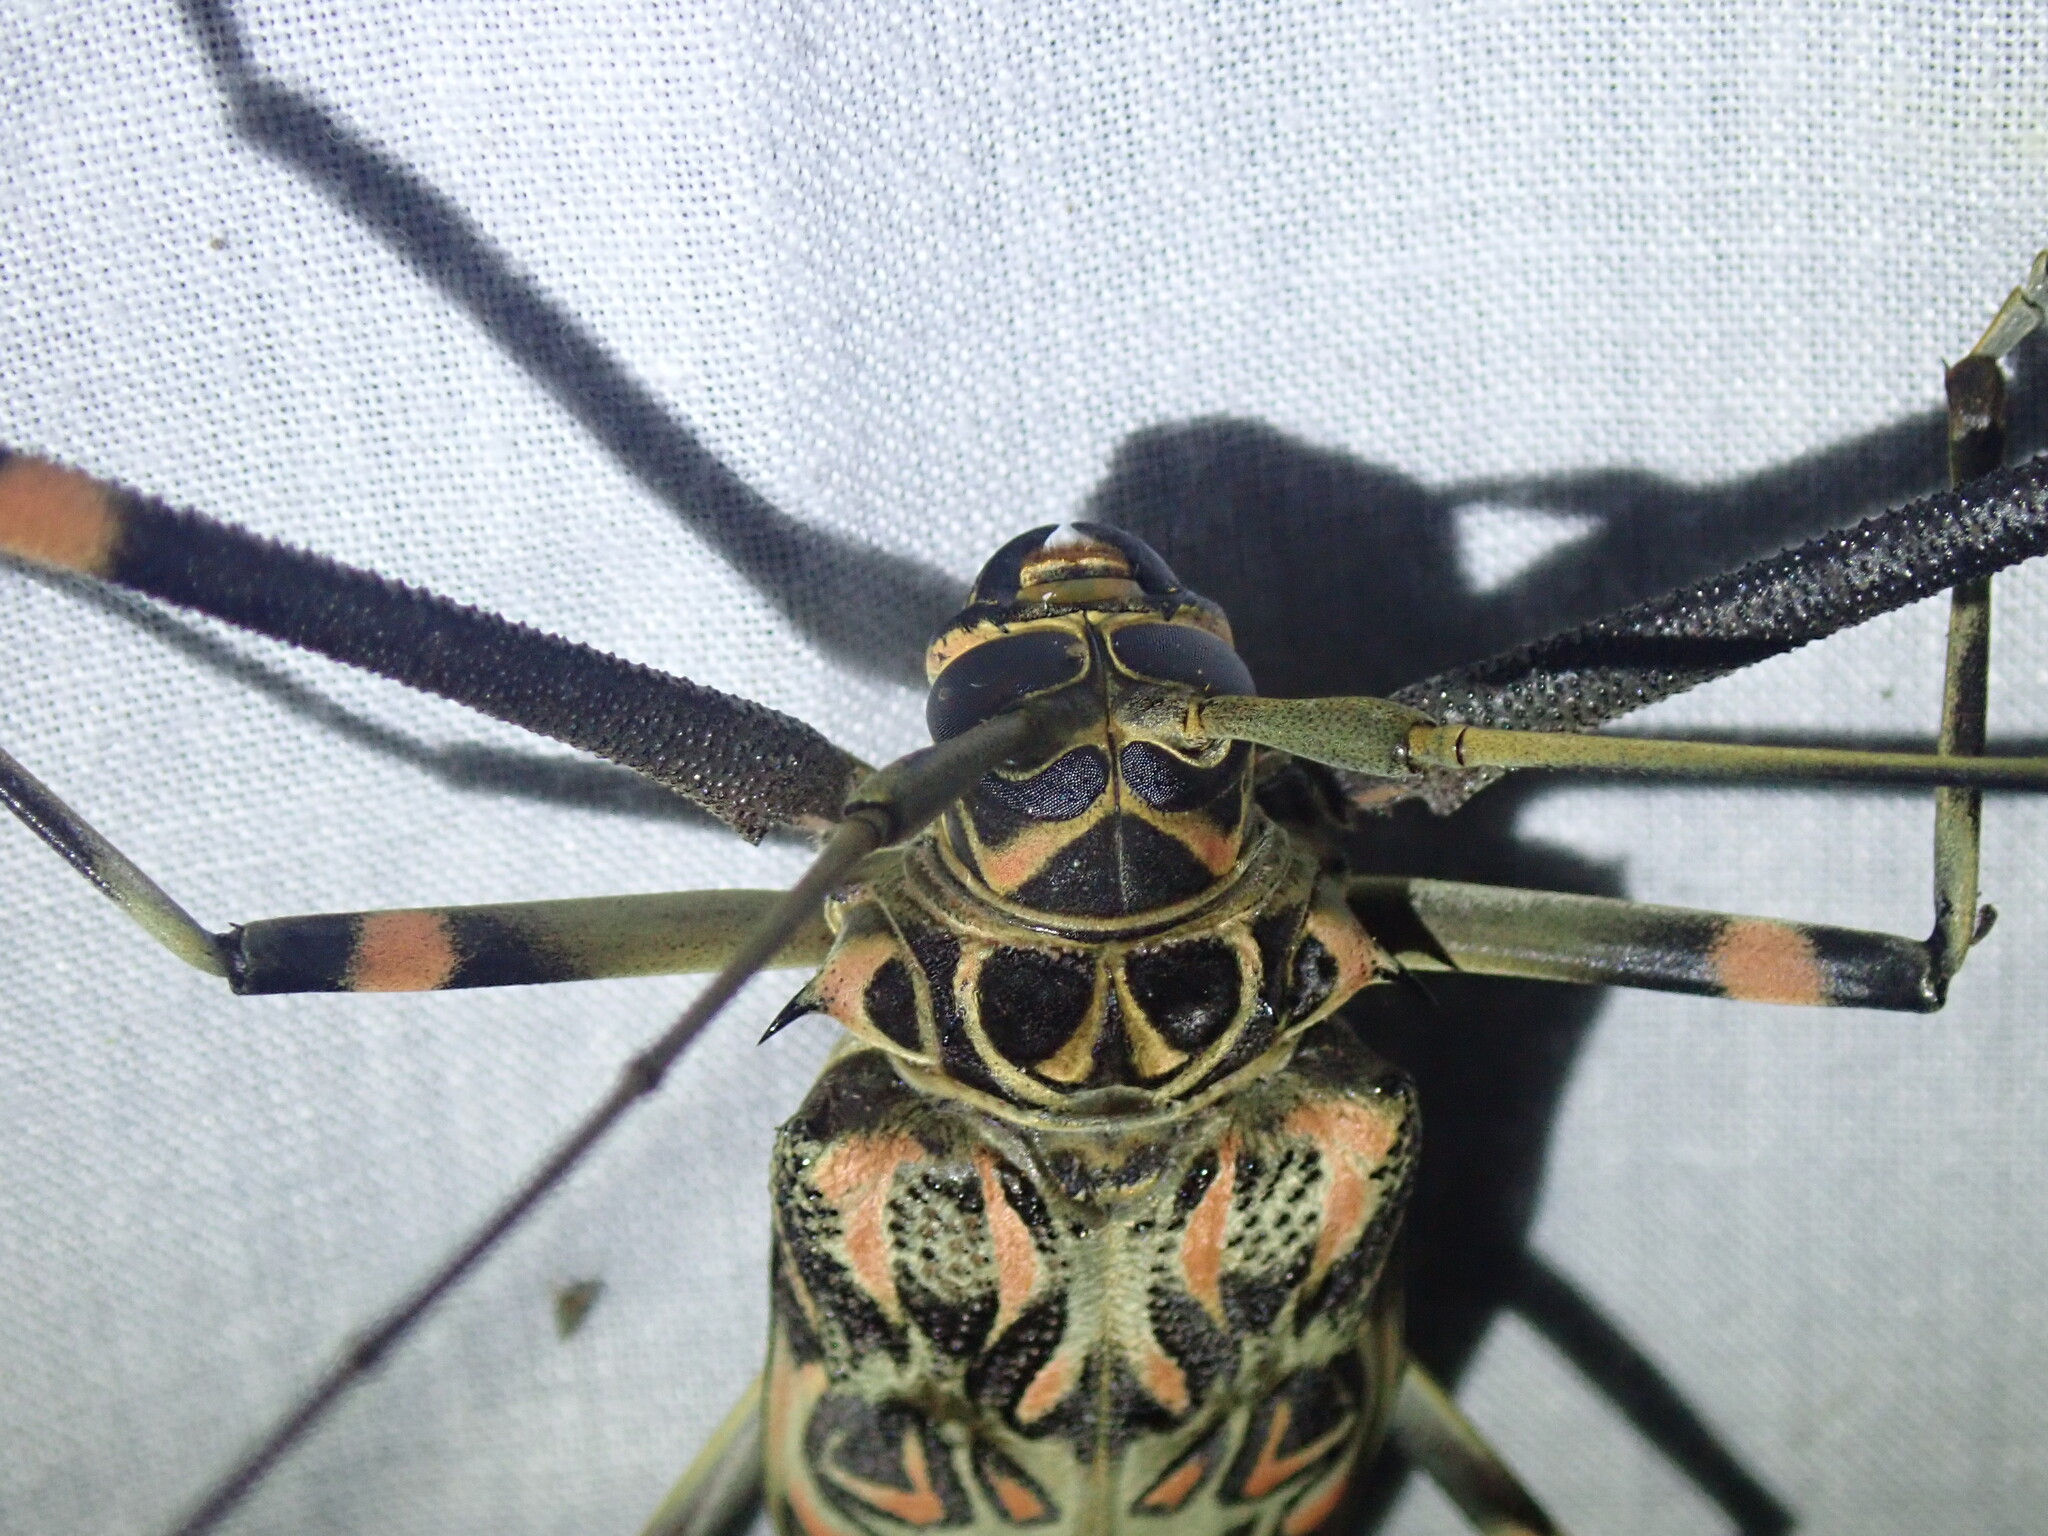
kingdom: Animalia
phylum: Arthropoda
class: Insecta
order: Coleoptera
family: Cerambycidae
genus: Acrocinus
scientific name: Acrocinus longimanus
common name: Arlequin
